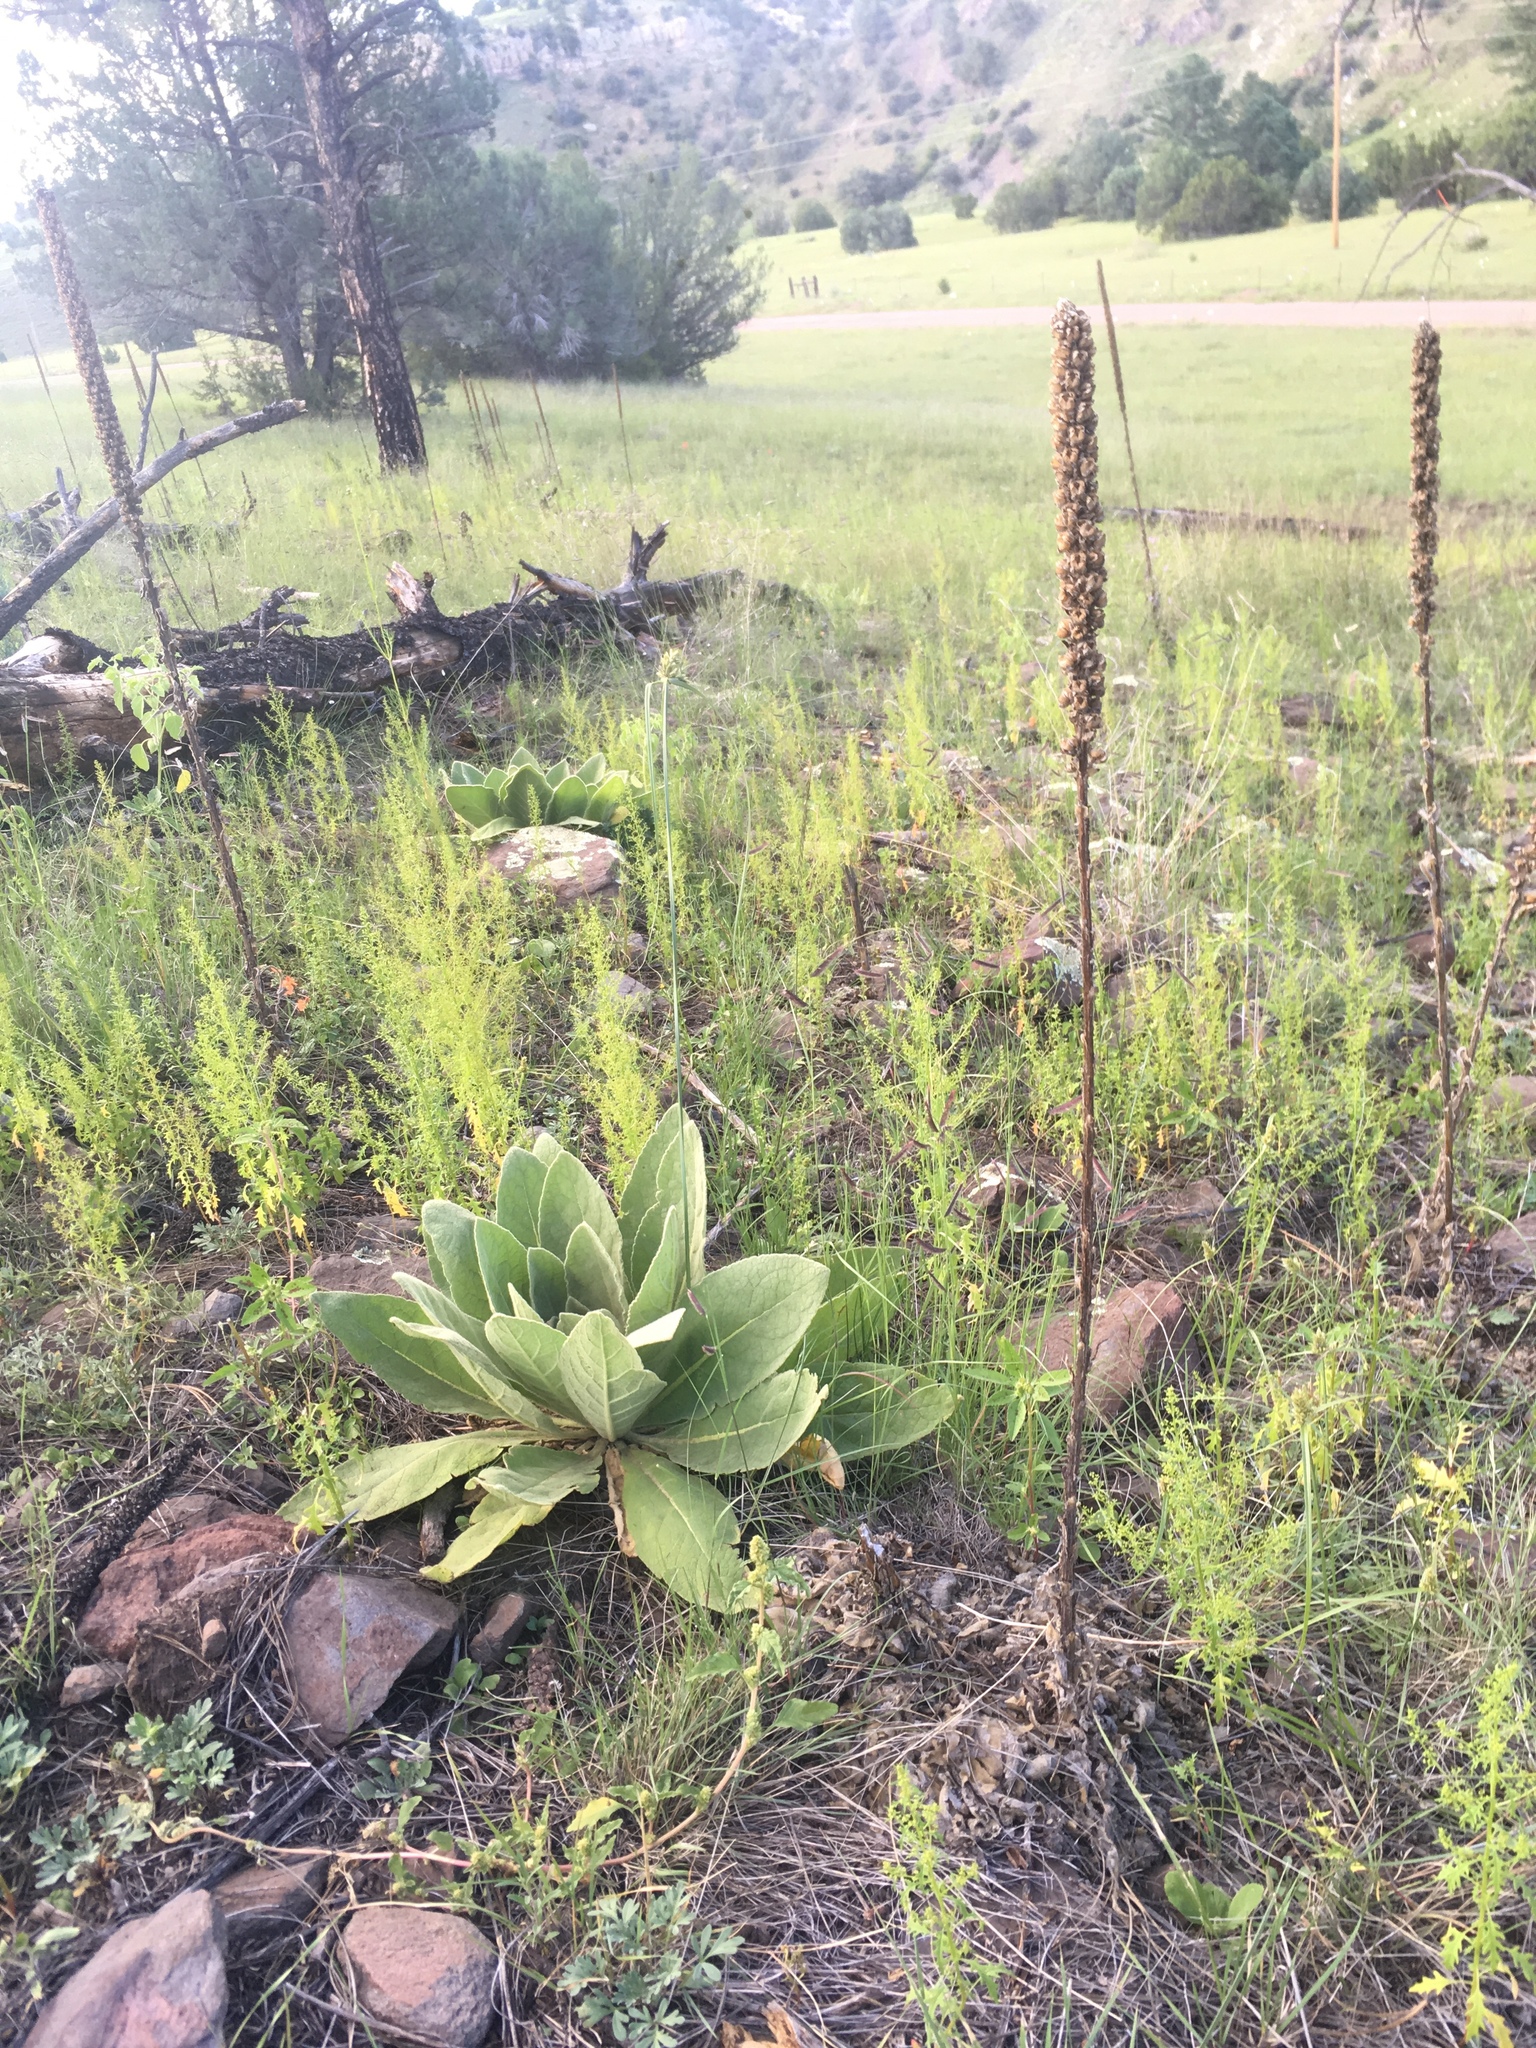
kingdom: Plantae
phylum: Tracheophyta
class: Magnoliopsida
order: Lamiales
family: Scrophulariaceae
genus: Verbascum
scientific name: Verbascum thapsus
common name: Common mullein
